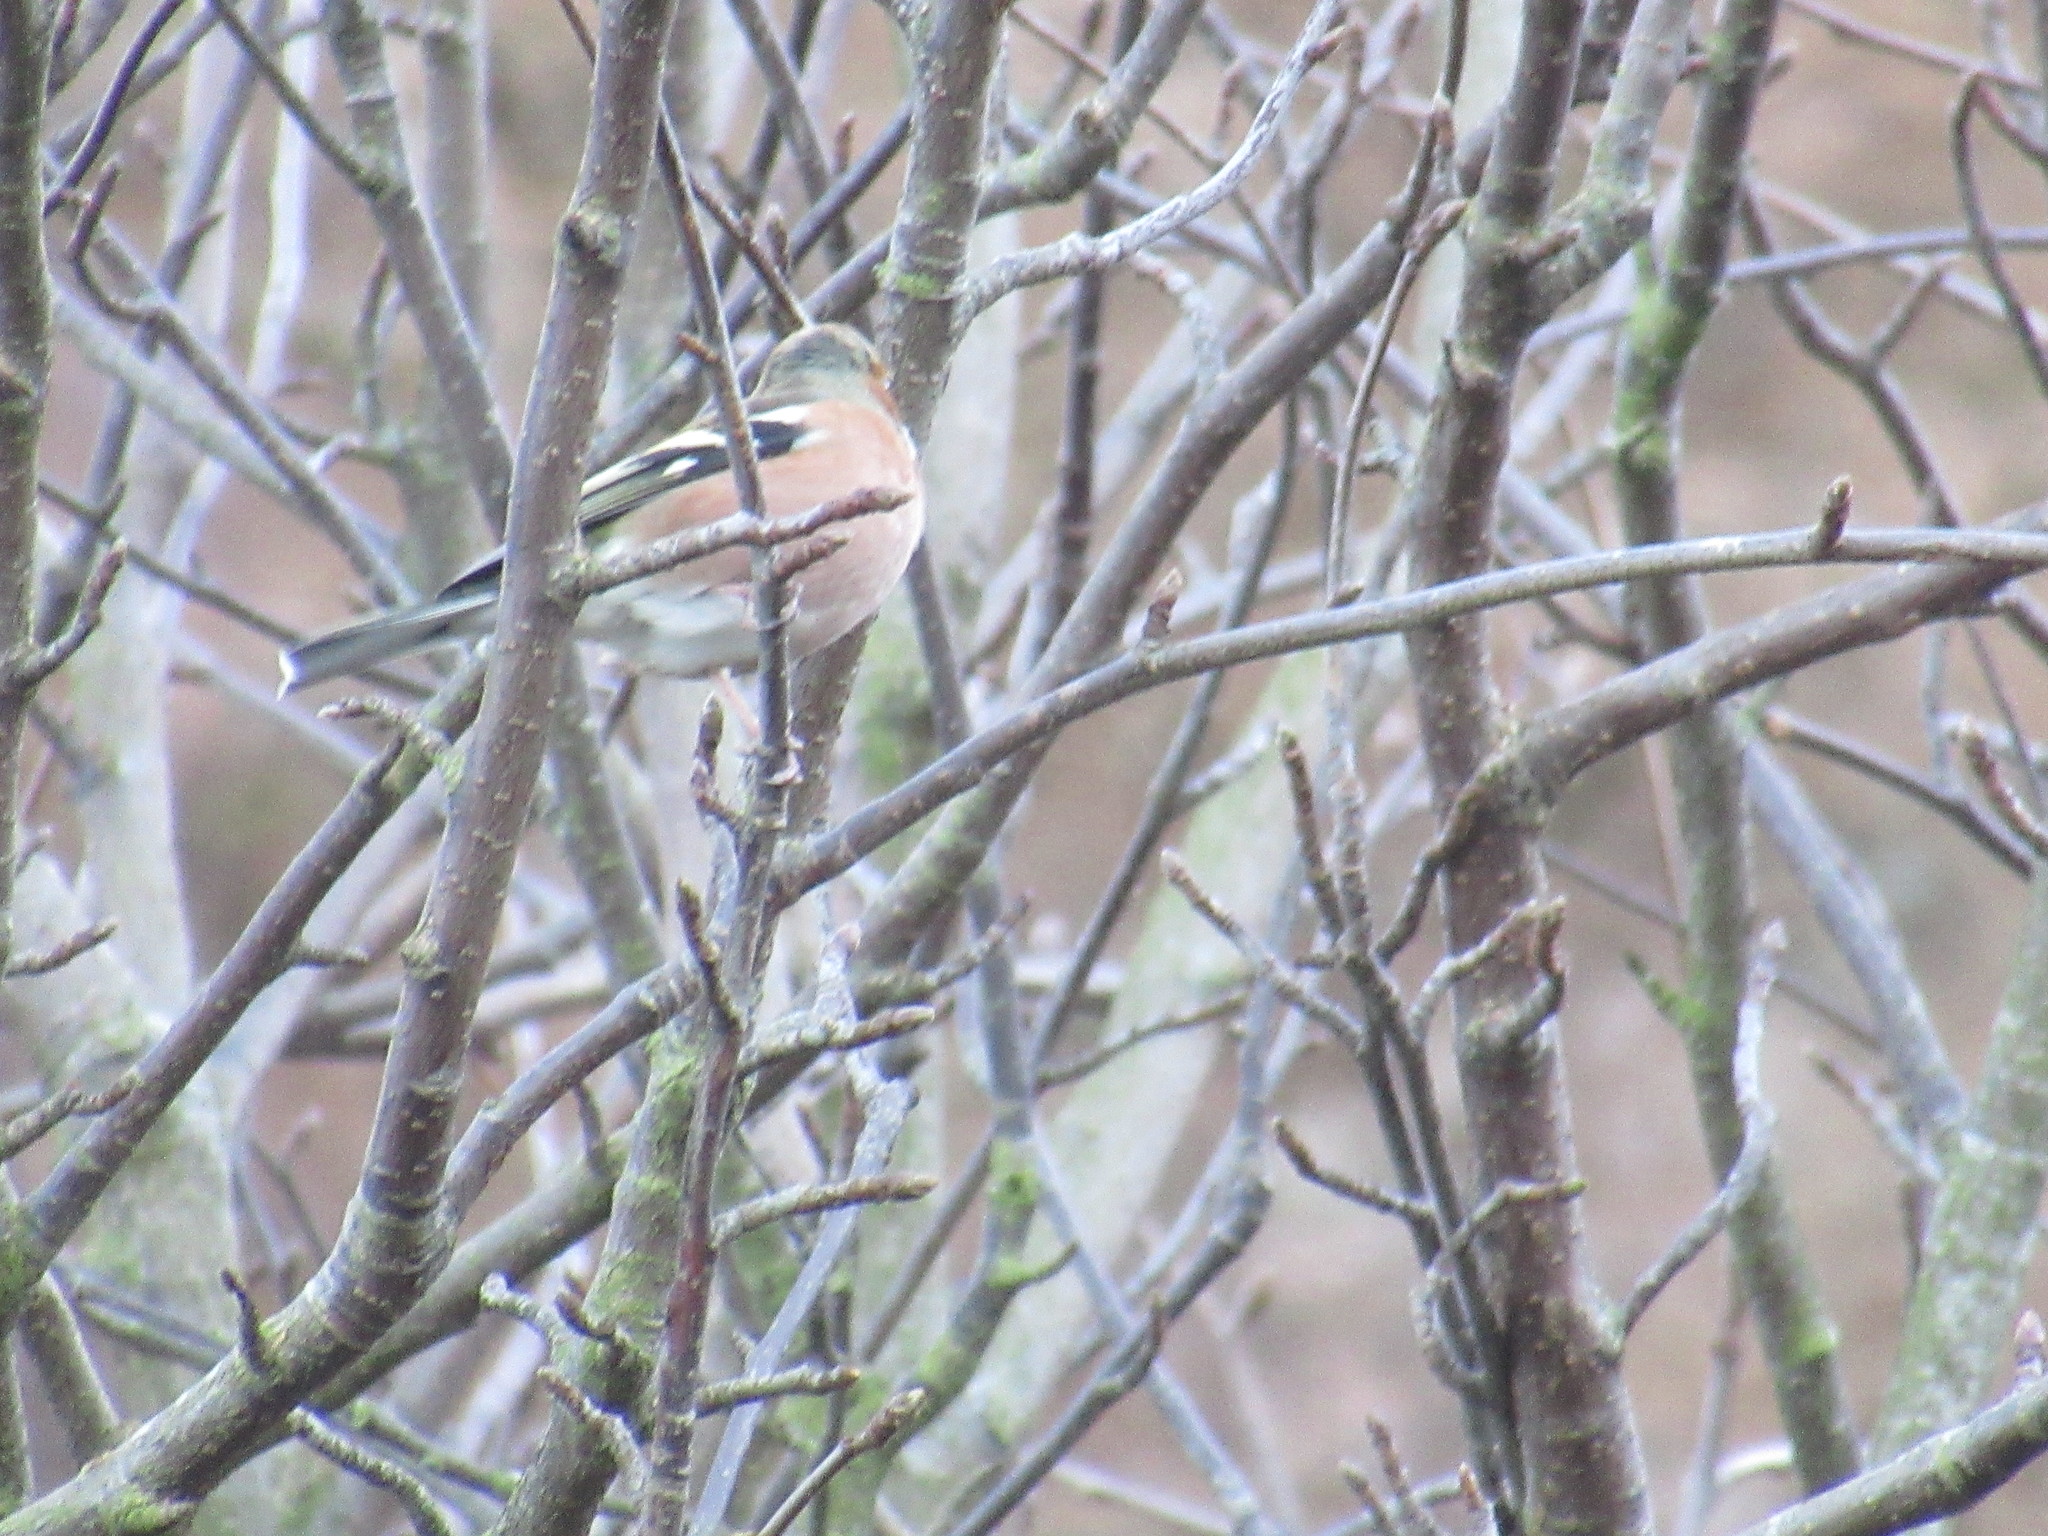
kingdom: Animalia
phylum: Chordata
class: Aves
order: Passeriformes
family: Fringillidae
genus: Fringilla
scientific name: Fringilla coelebs
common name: Common chaffinch
